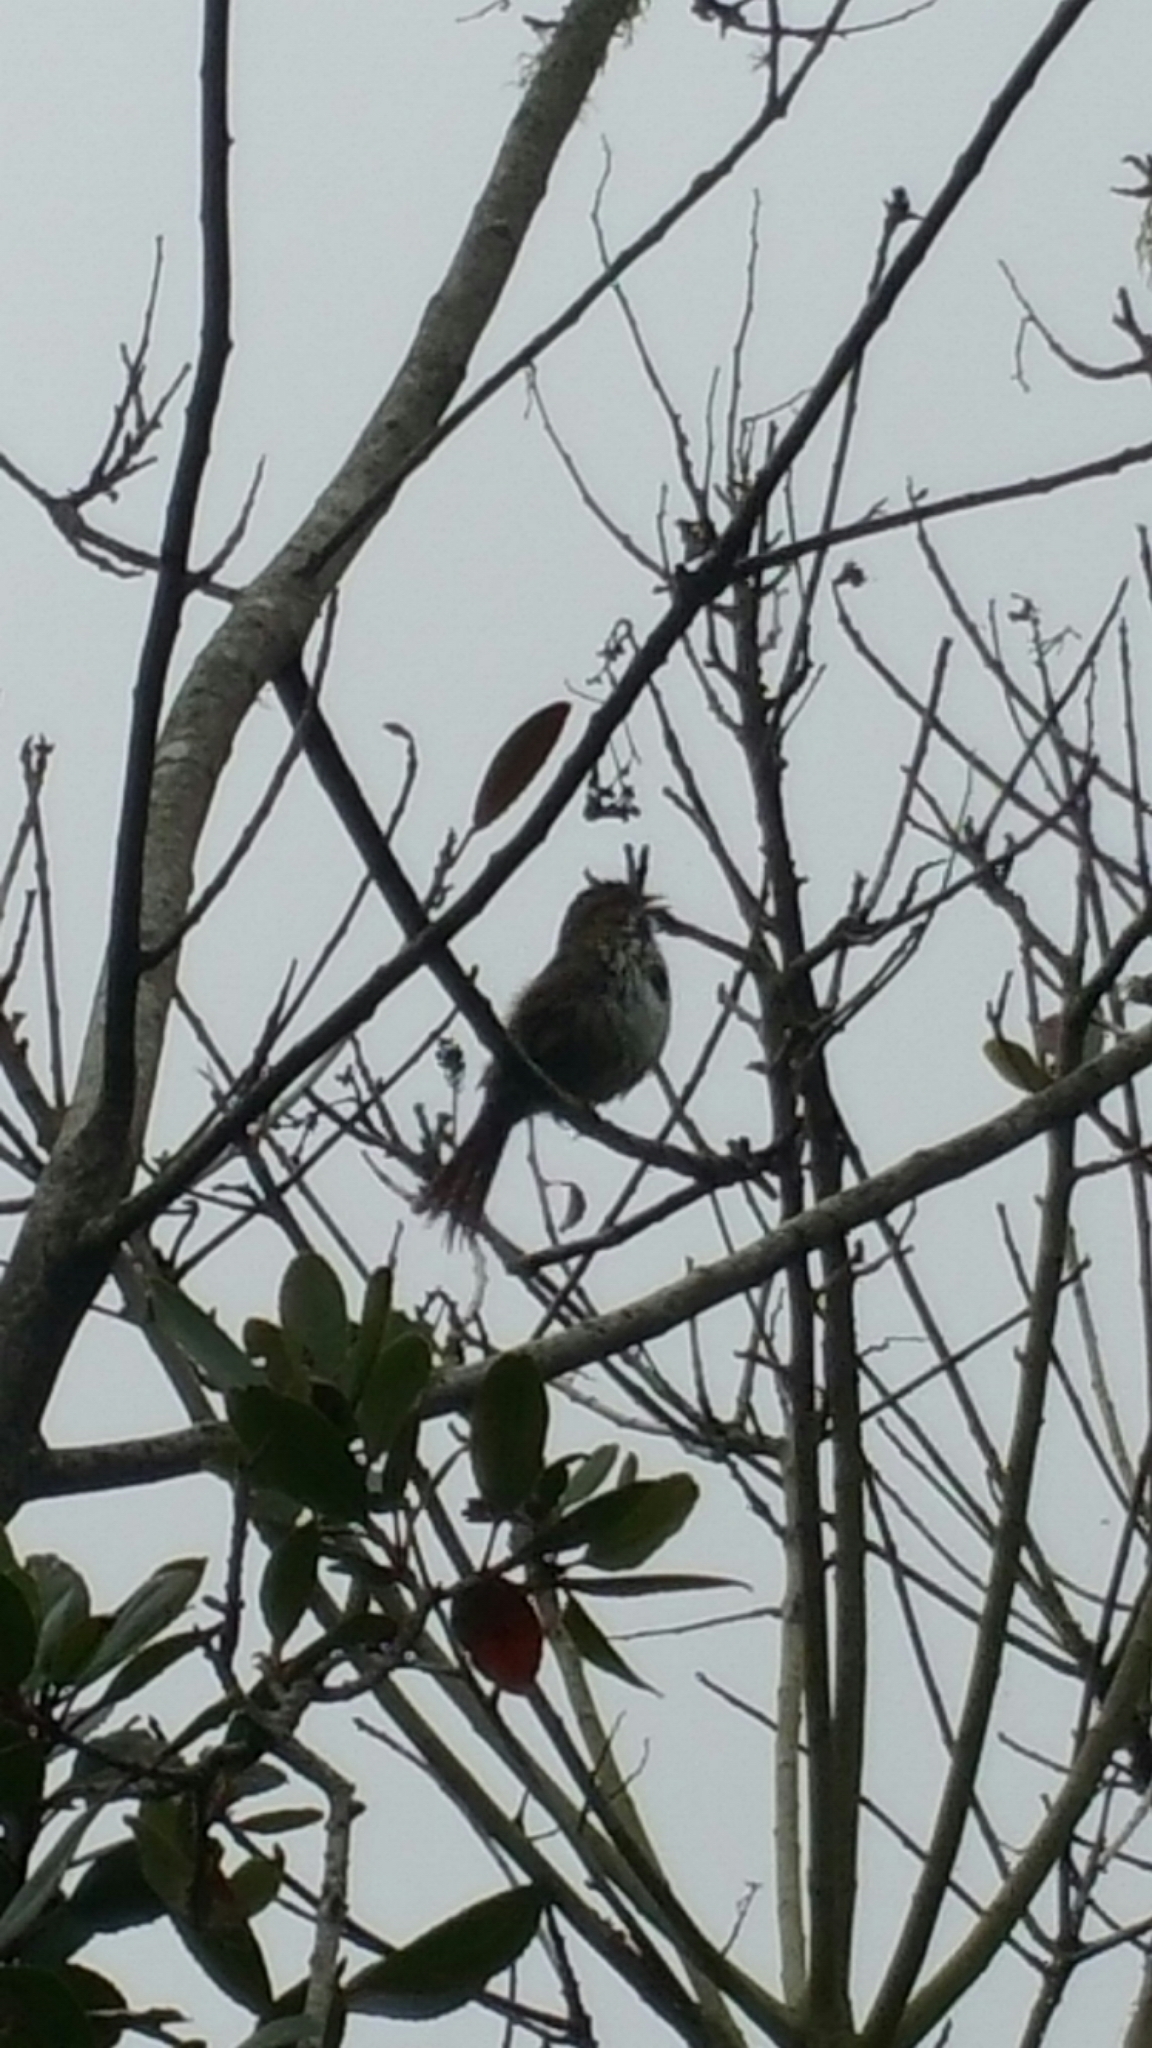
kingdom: Animalia
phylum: Chordata
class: Aves
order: Passeriformes
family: Passerellidae
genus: Melospiza
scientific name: Melospiza melodia
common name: Song sparrow
